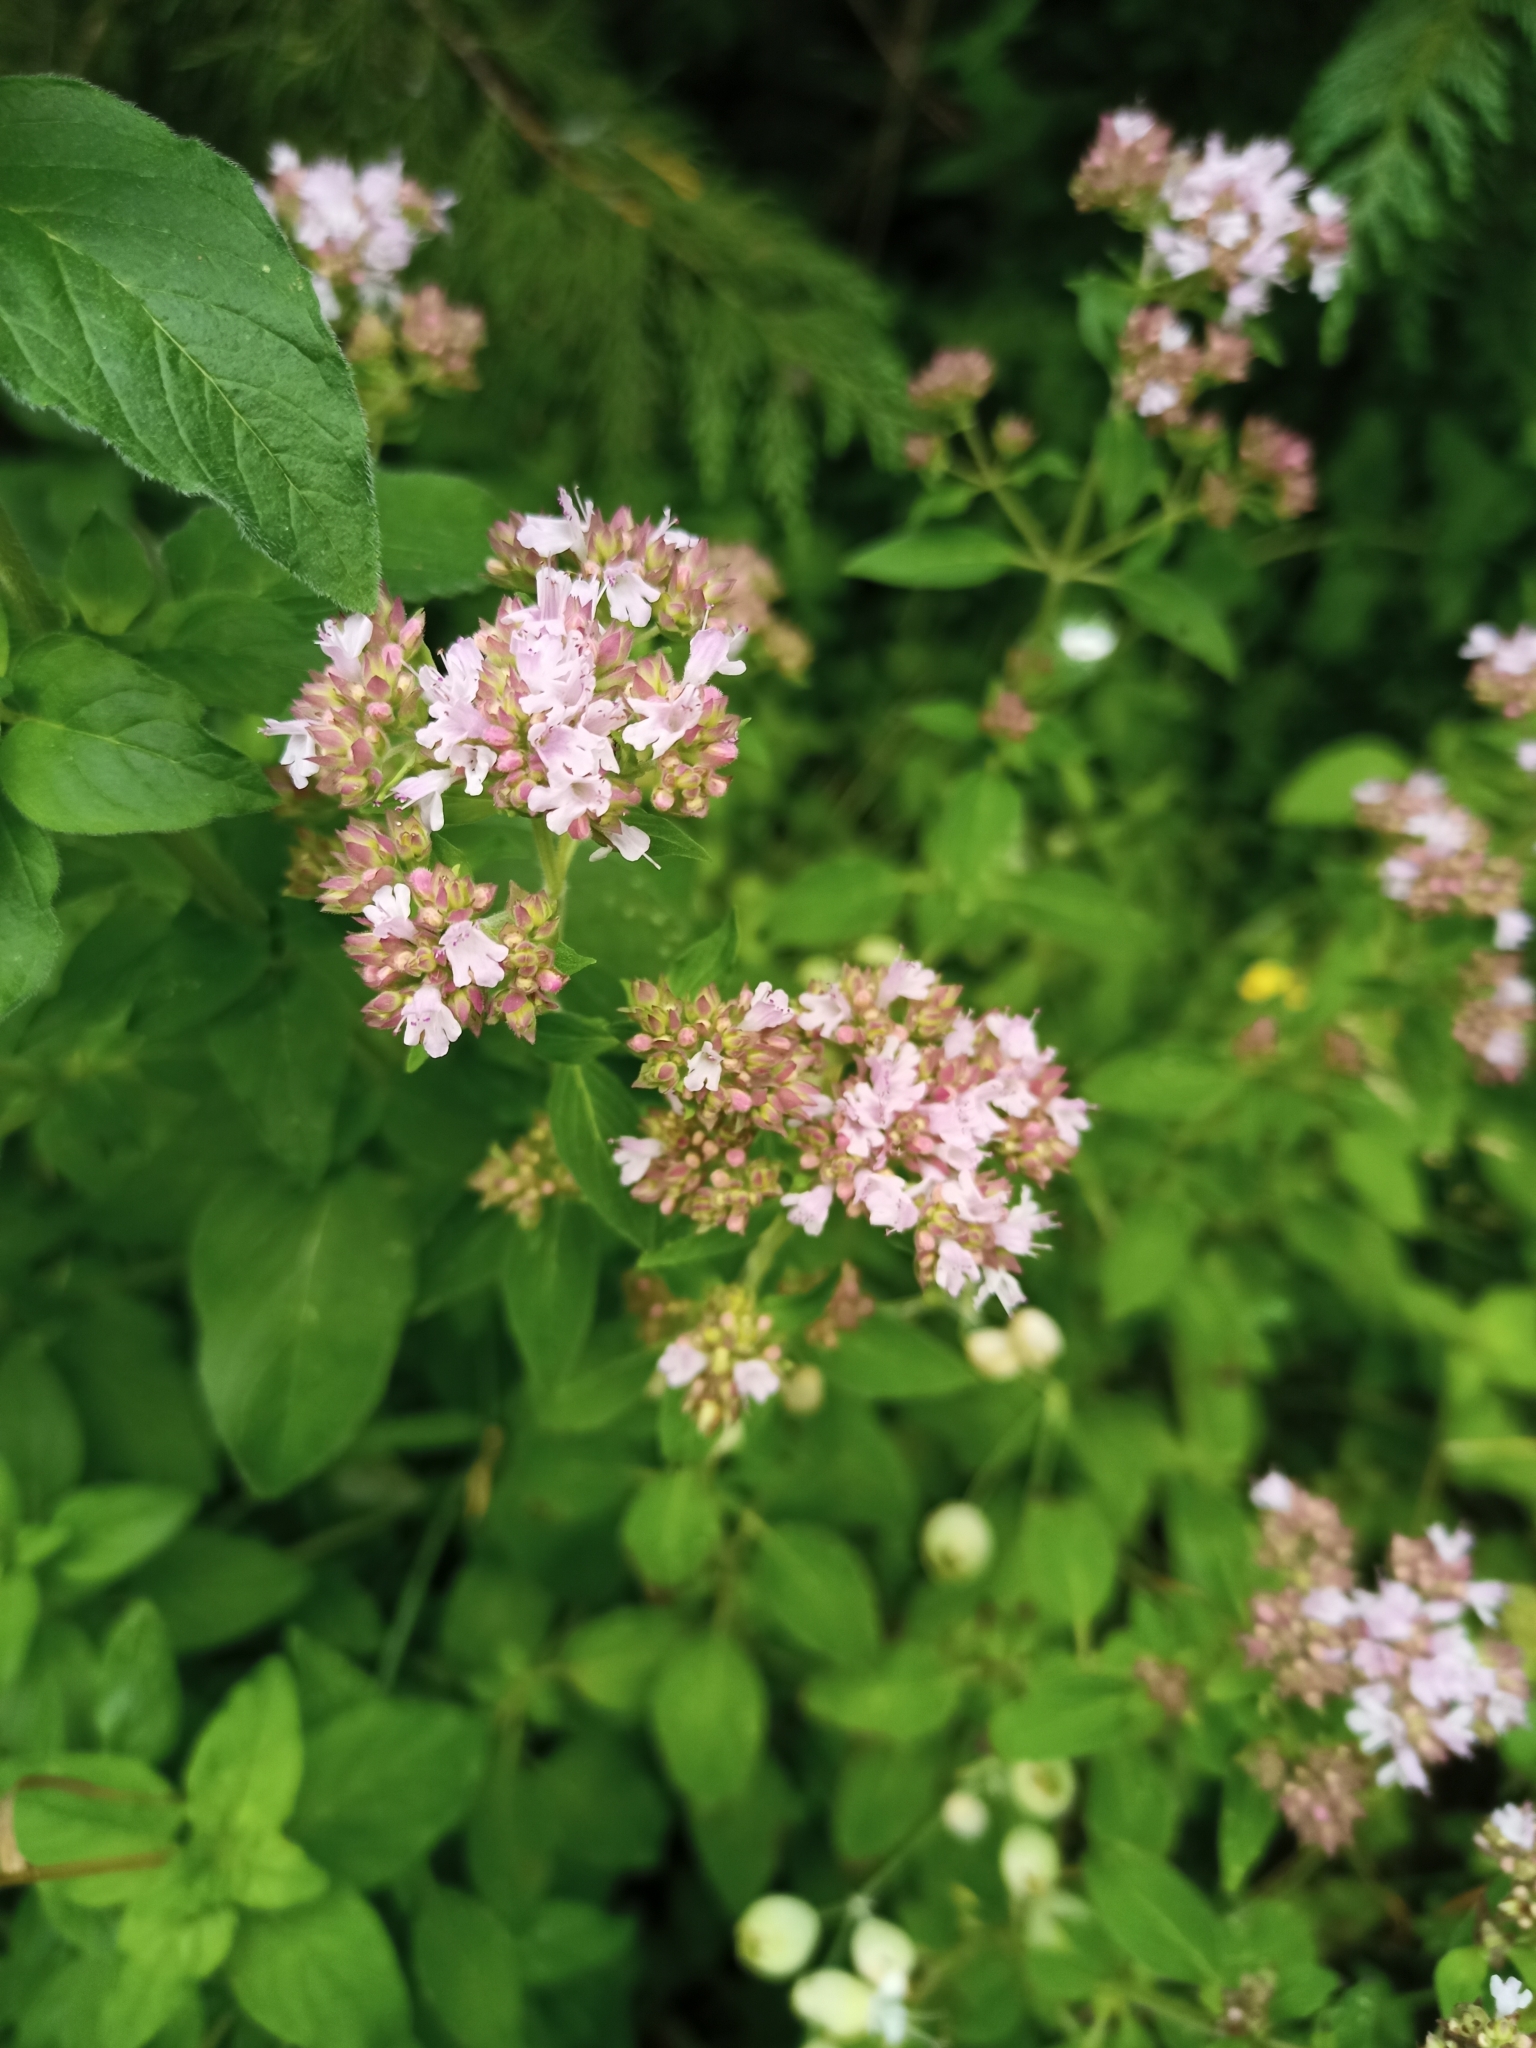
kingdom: Plantae
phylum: Tracheophyta
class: Magnoliopsida
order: Lamiales
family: Lamiaceae
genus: Origanum
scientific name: Origanum vulgare
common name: Wild marjoram
